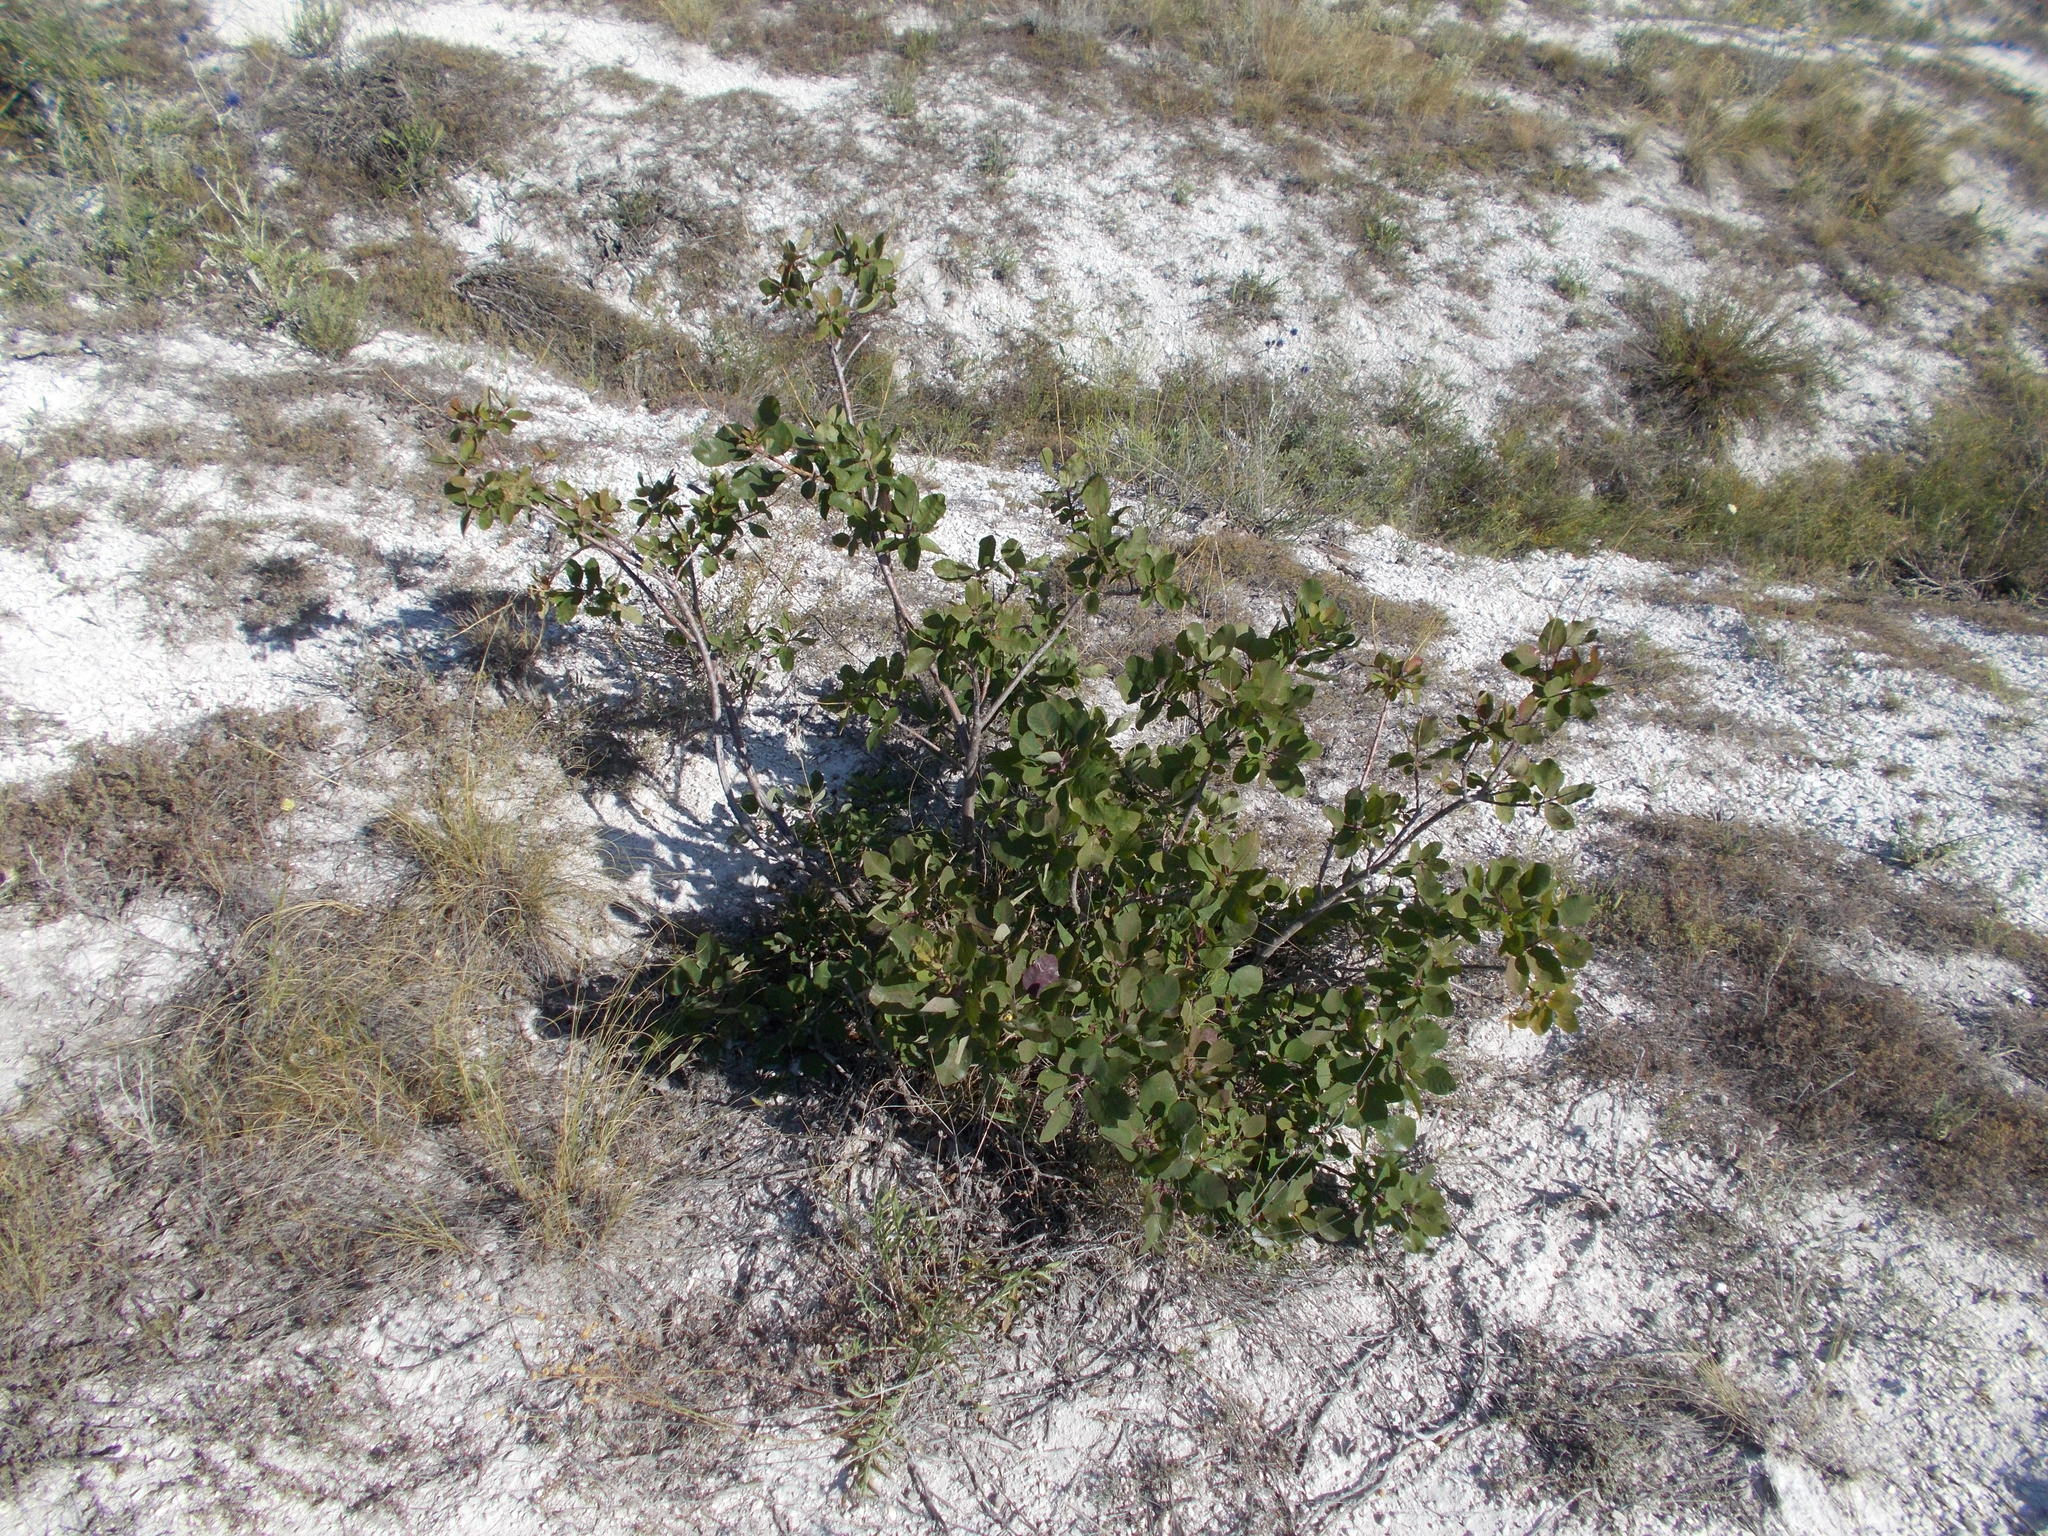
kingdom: Plantae
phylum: Tracheophyta
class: Magnoliopsida
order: Sapindales
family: Anacardiaceae
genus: Cotinus
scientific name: Cotinus coggygria
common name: Smoke-tree
